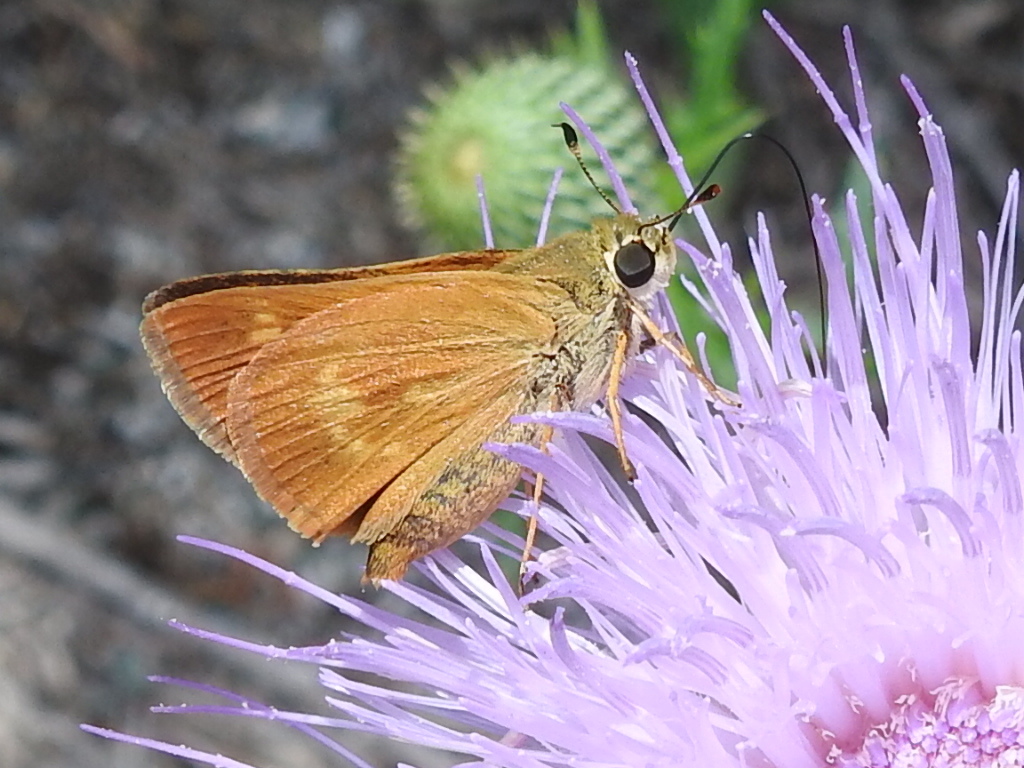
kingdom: Animalia
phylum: Arthropoda
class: Insecta
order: Lepidoptera
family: Hesperiidae
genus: Polites
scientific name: Polites otho
